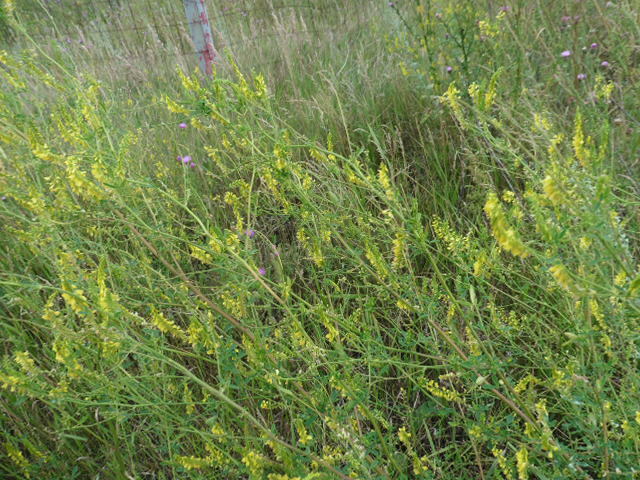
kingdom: Plantae
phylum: Tracheophyta
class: Magnoliopsida
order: Fabales
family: Fabaceae
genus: Melilotus
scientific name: Melilotus officinalis
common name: Sweetclover
